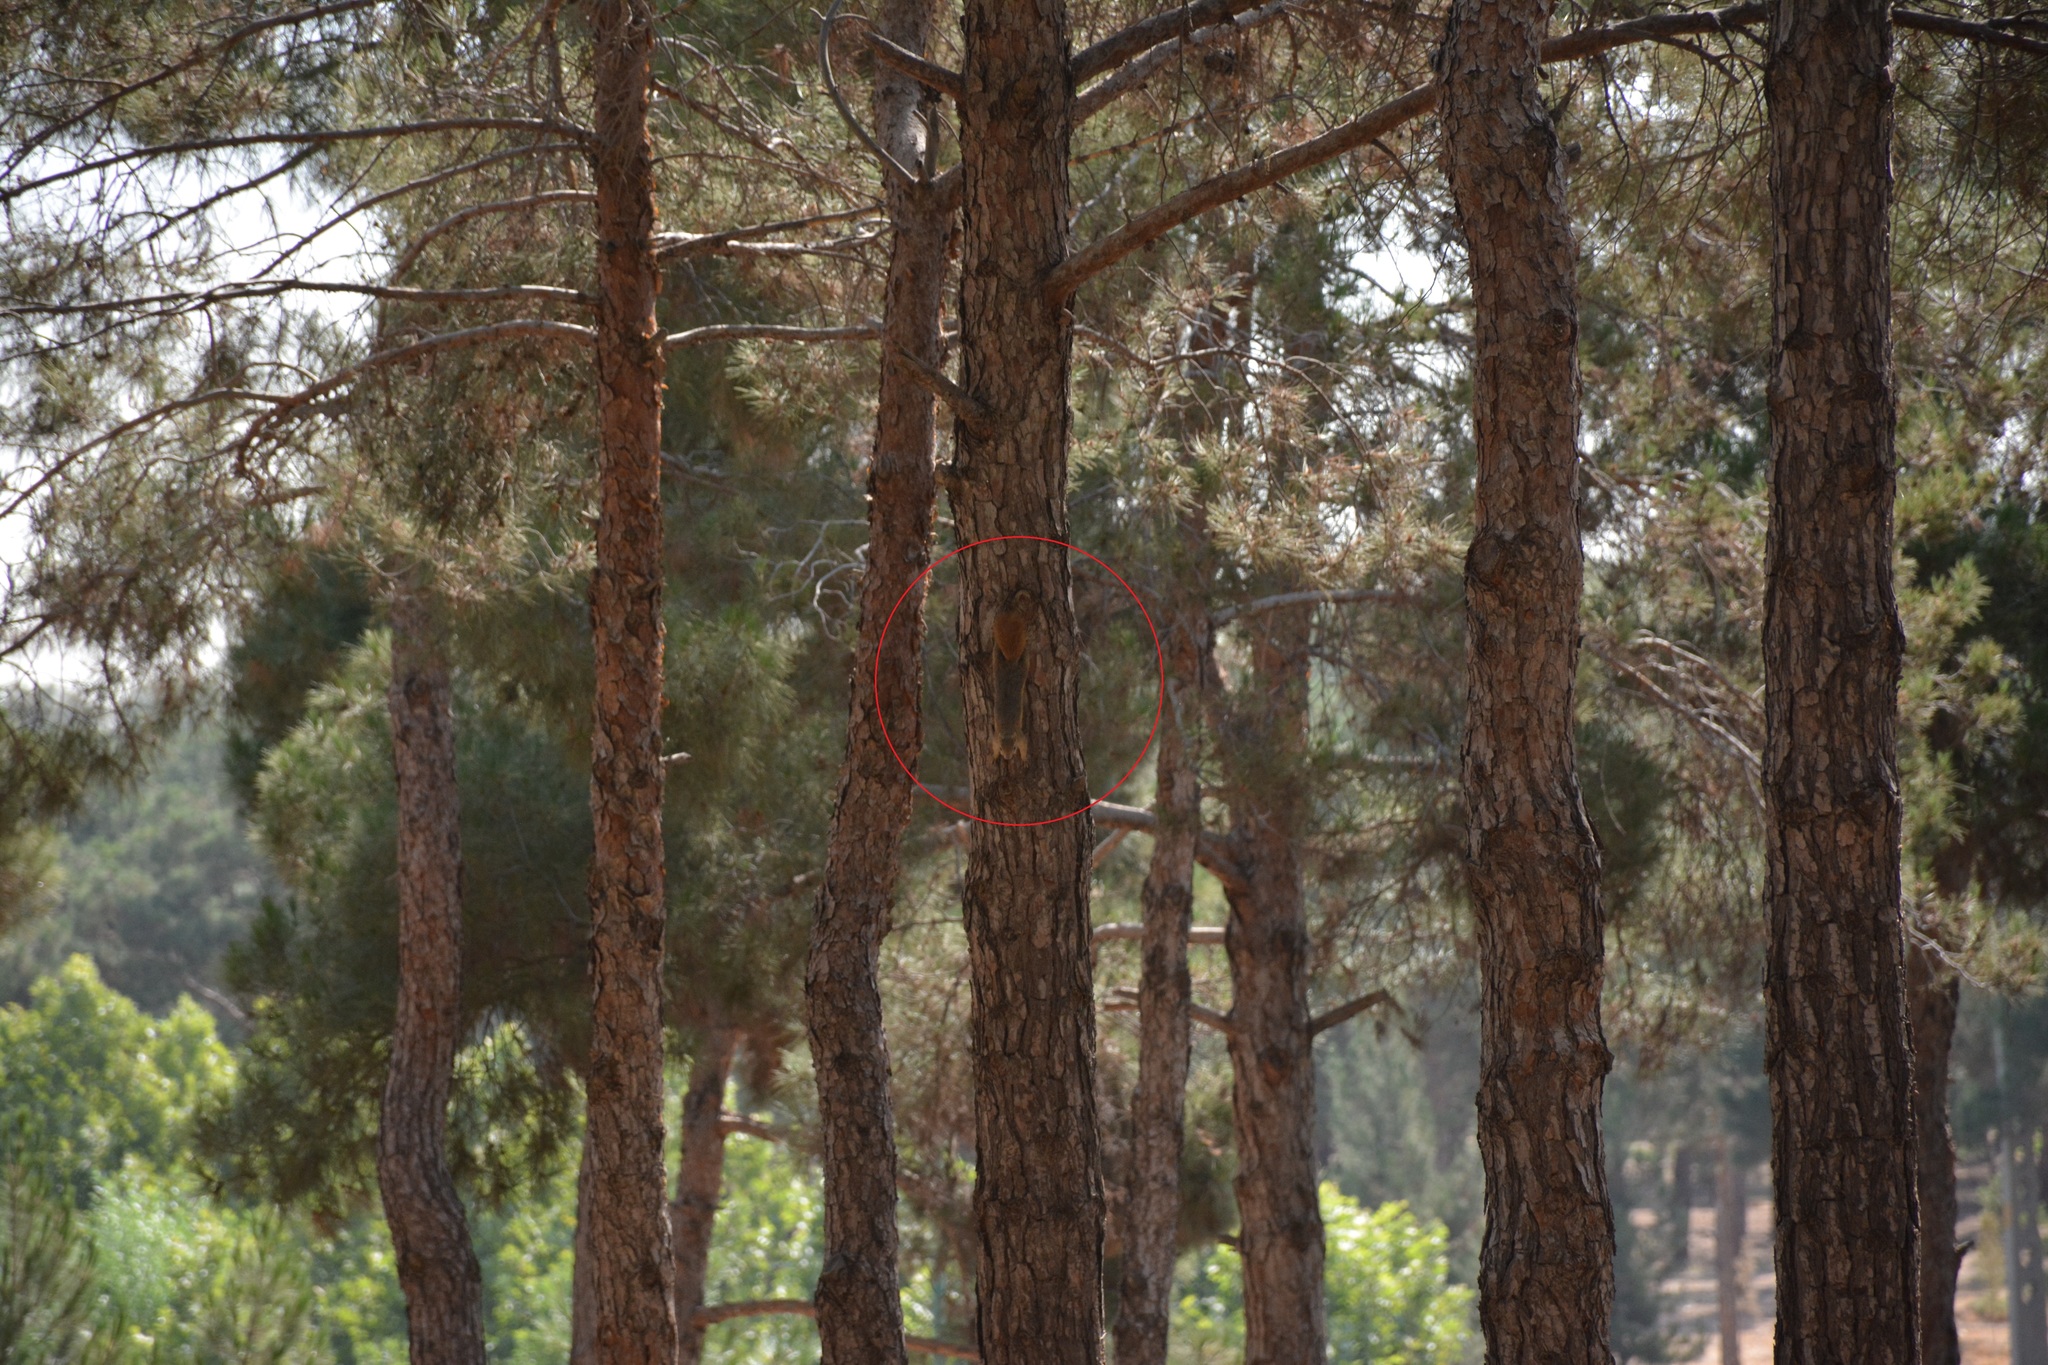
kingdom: Animalia
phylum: Chordata
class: Mammalia
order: Rodentia
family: Sciuridae
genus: Sciurus
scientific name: Sciurus anomalus
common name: Caucasian squirrel
